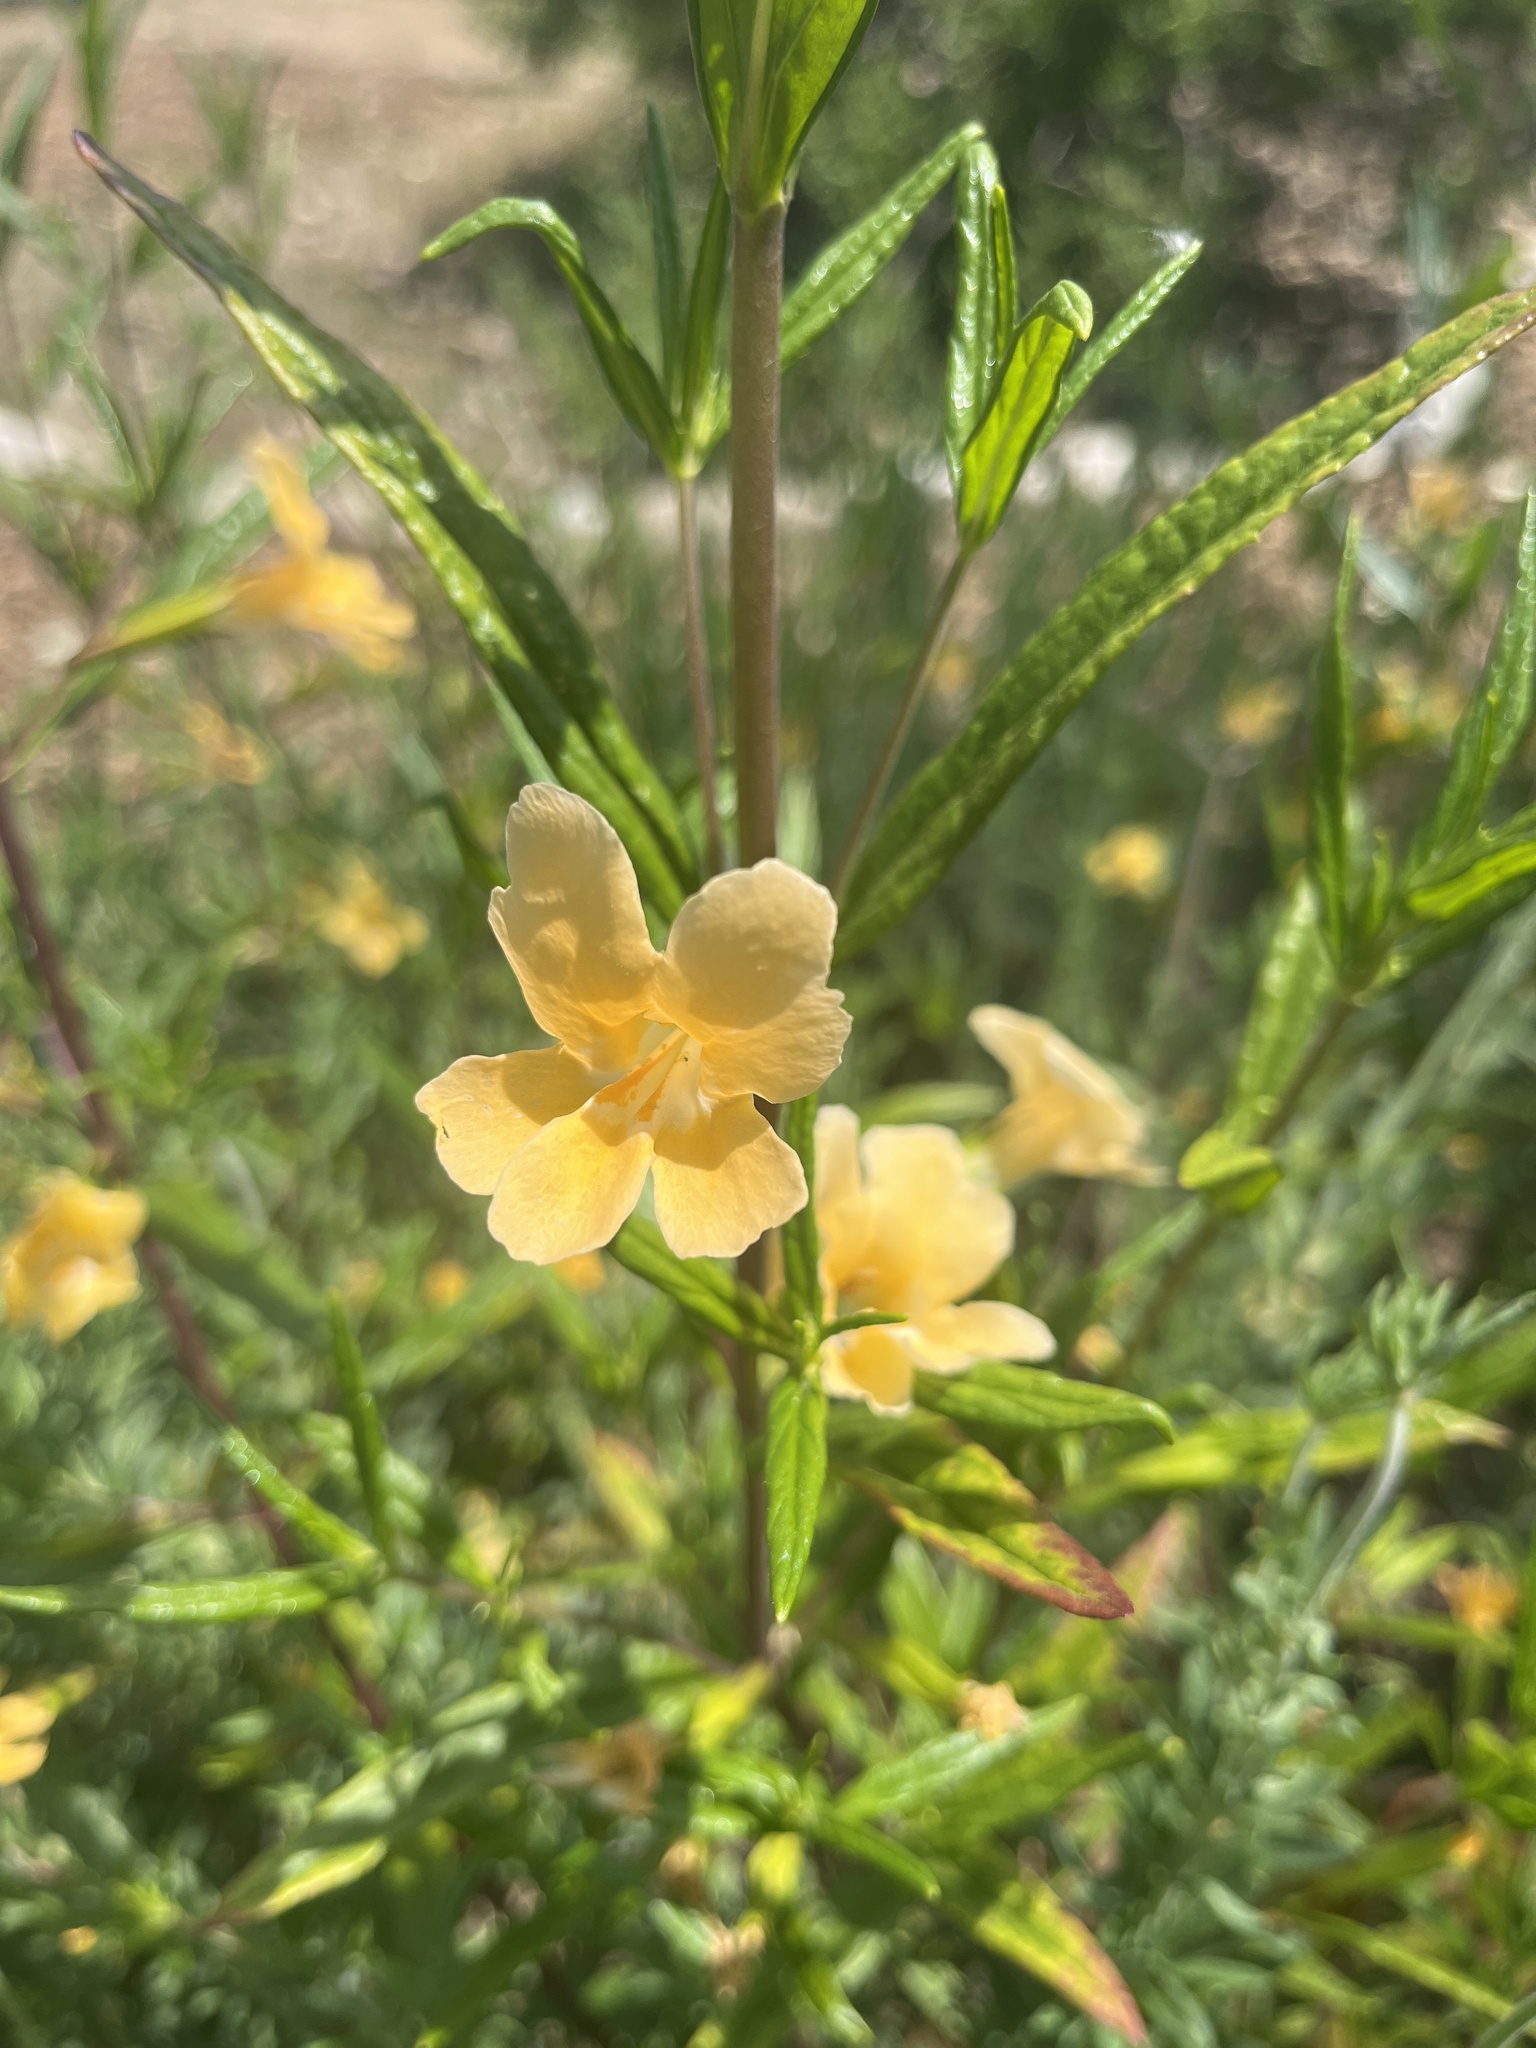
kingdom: Plantae
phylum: Tracheophyta
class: Magnoliopsida
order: Lamiales
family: Phrymaceae
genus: Diplacus
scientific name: Diplacus longiflorus
